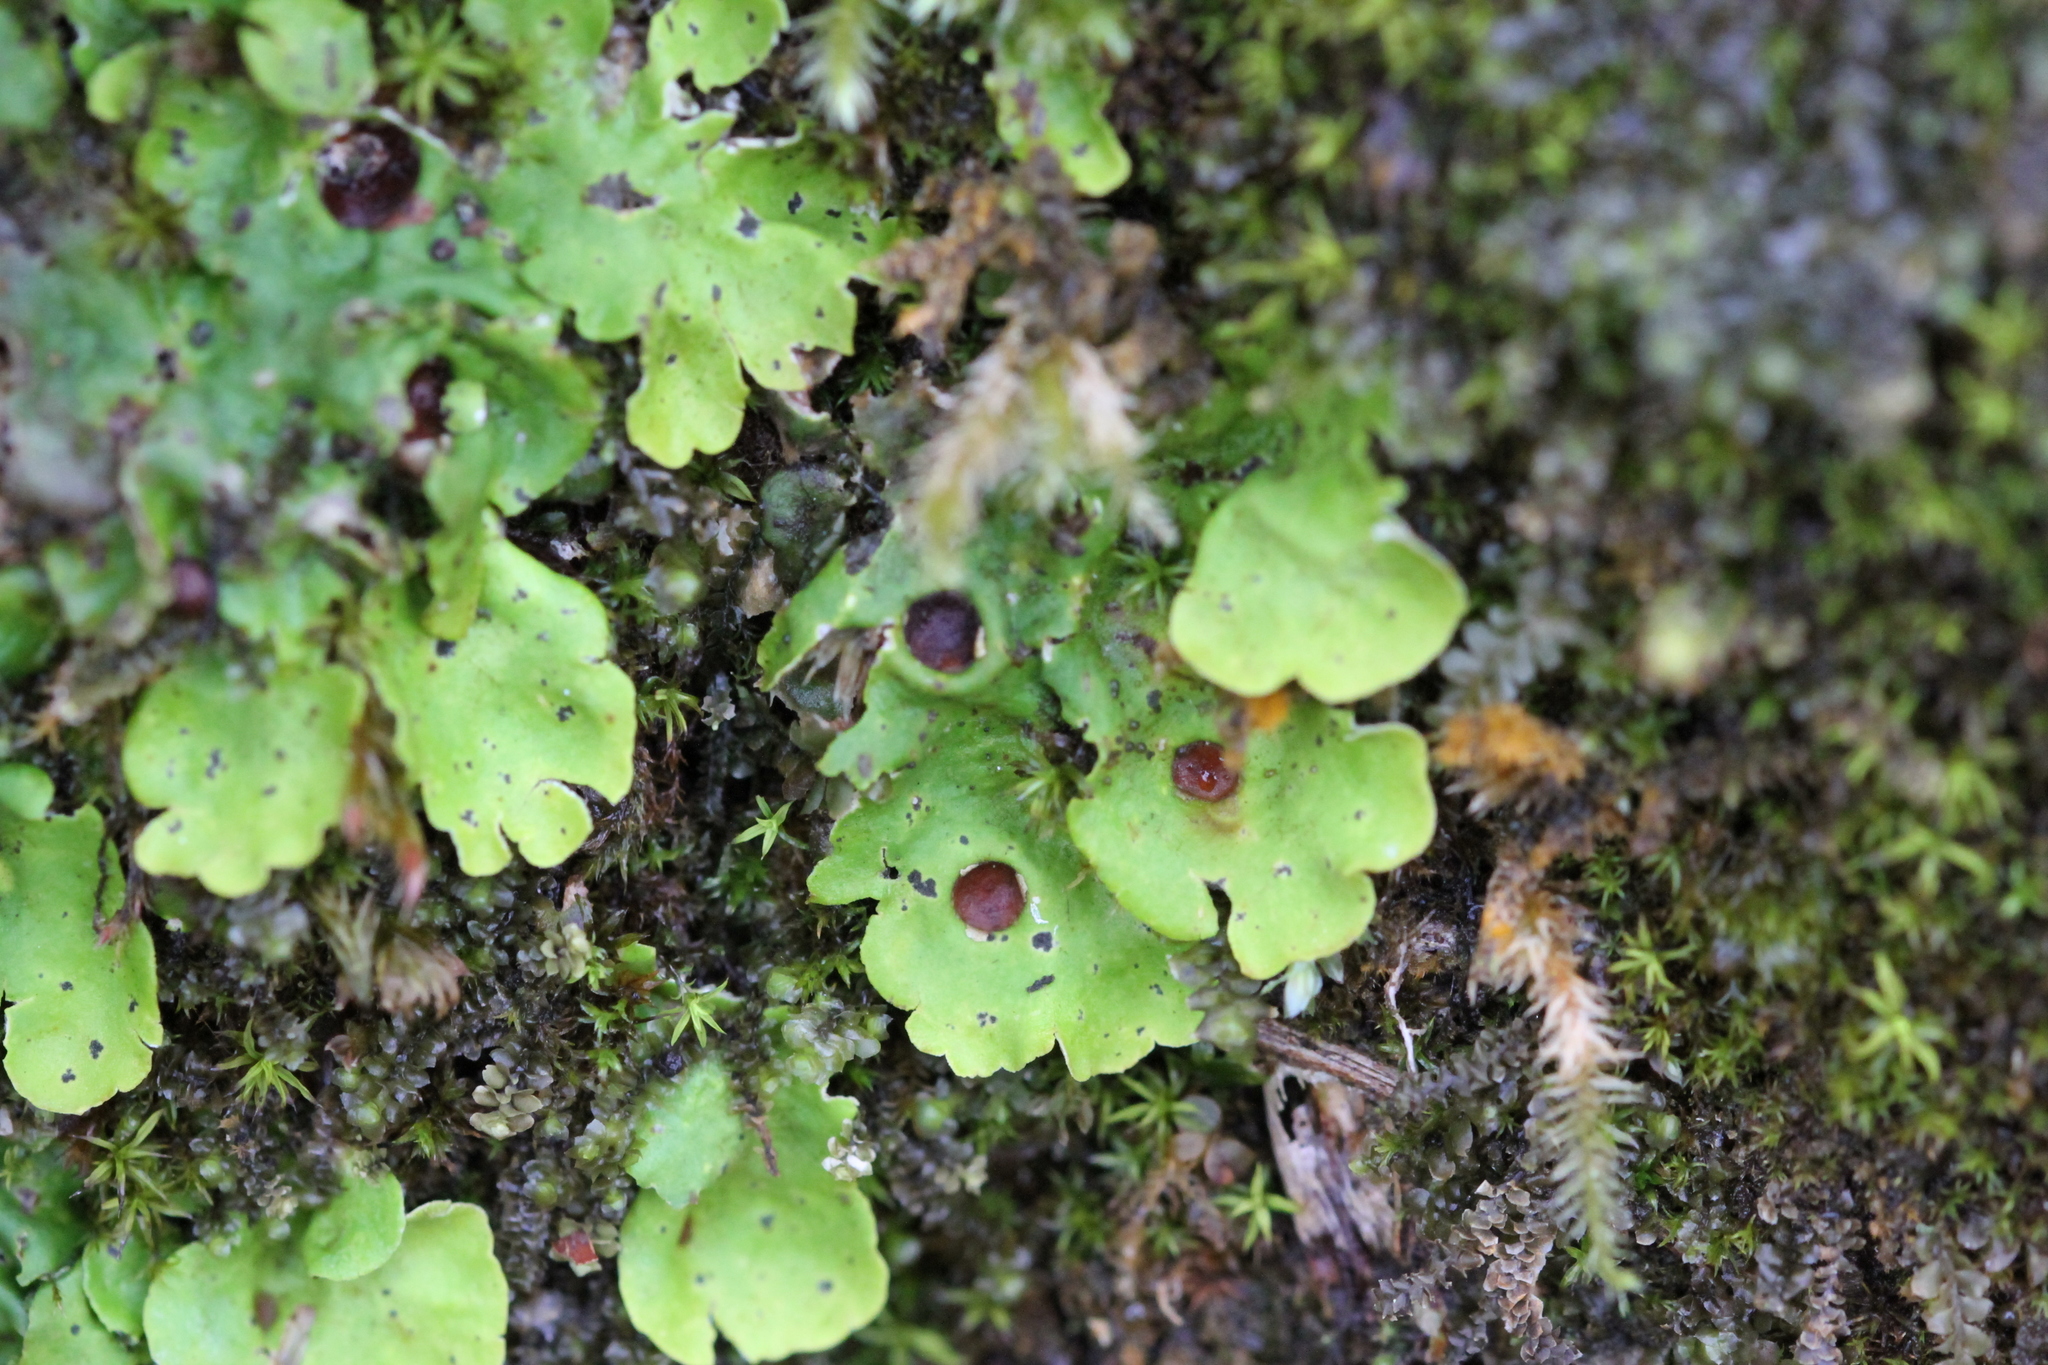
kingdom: Fungi
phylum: Ascomycota
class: Lecanoromycetes
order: Peltigerales
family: Peltigeraceae
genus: Solorina
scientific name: Solorina saccata
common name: Common chocolate chip lichen
